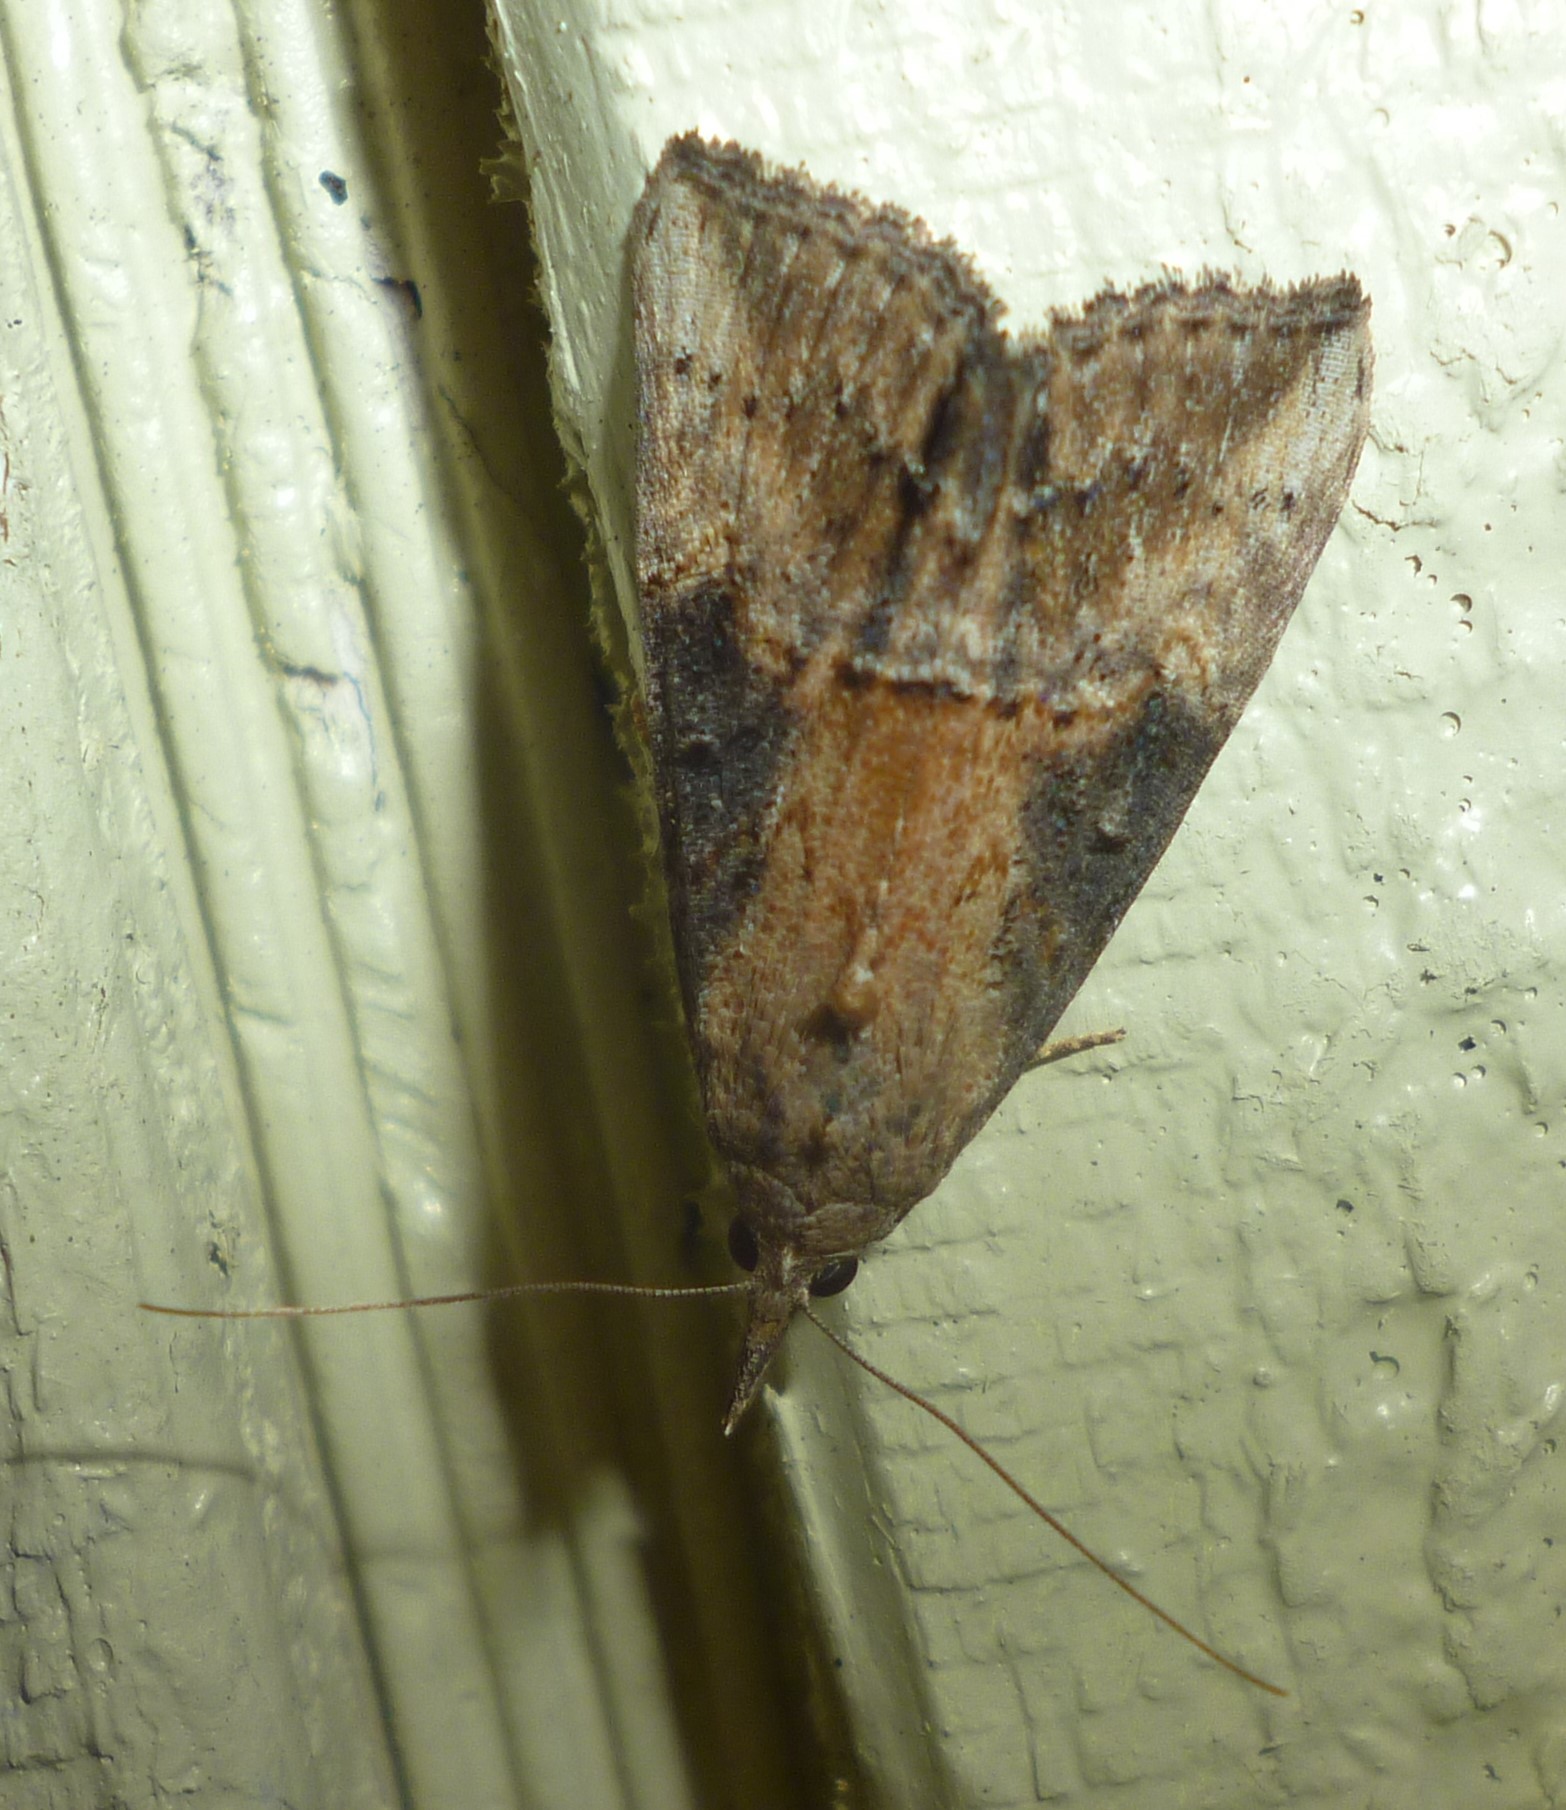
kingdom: Animalia
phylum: Arthropoda
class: Insecta
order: Lepidoptera
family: Erebidae
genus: Hypena
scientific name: Hypena scabra
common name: Green cloverworm
